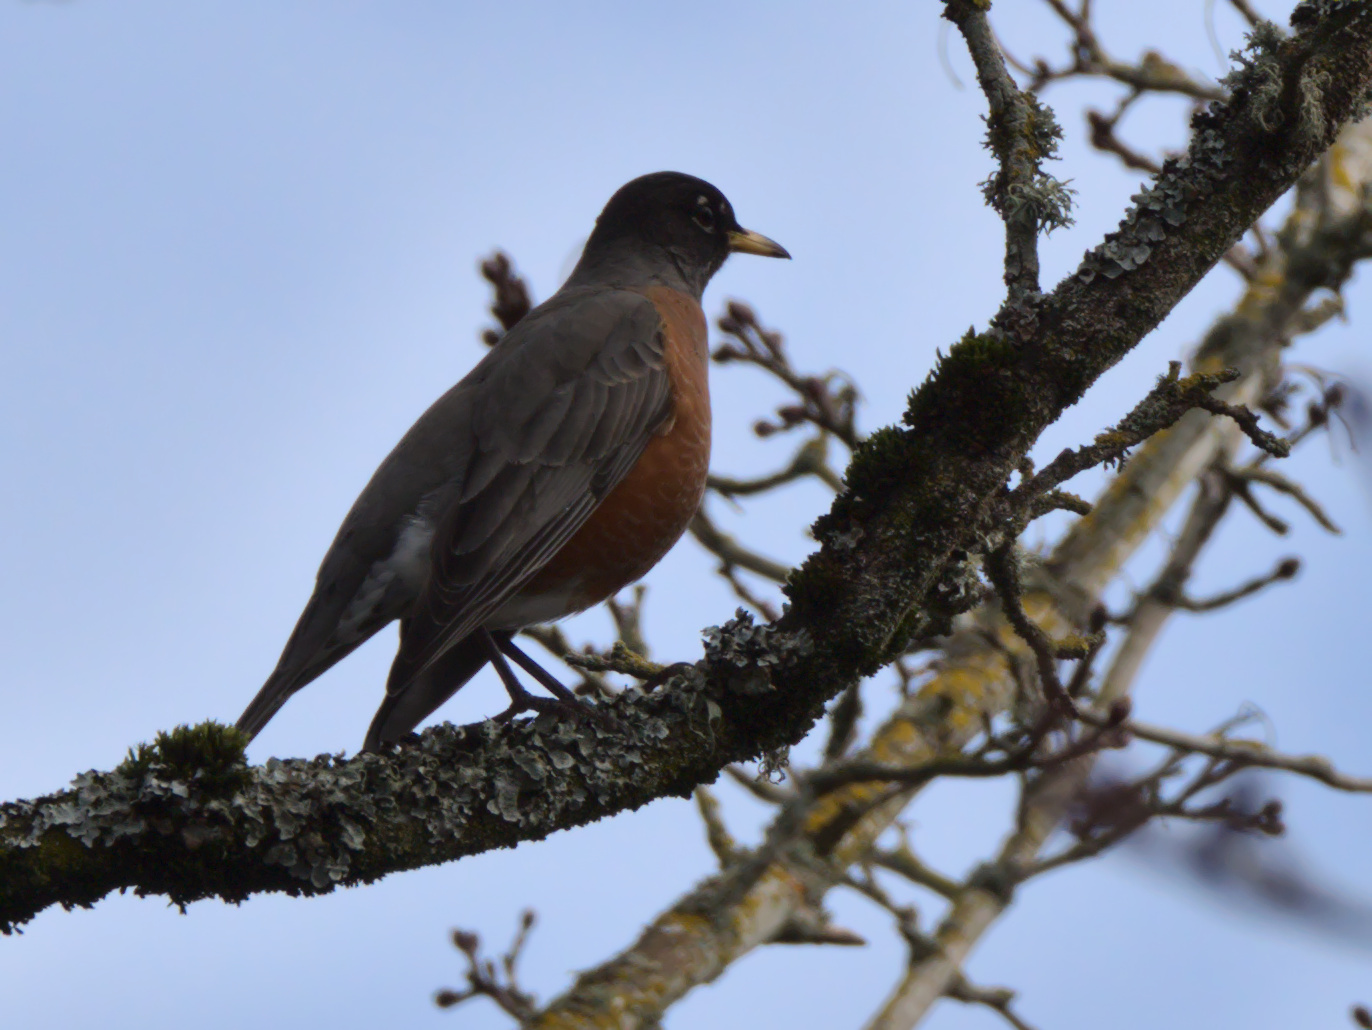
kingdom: Animalia
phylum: Chordata
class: Aves
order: Passeriformes
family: Turdidae
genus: Turdus
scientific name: Turdus migratorius
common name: American robin
